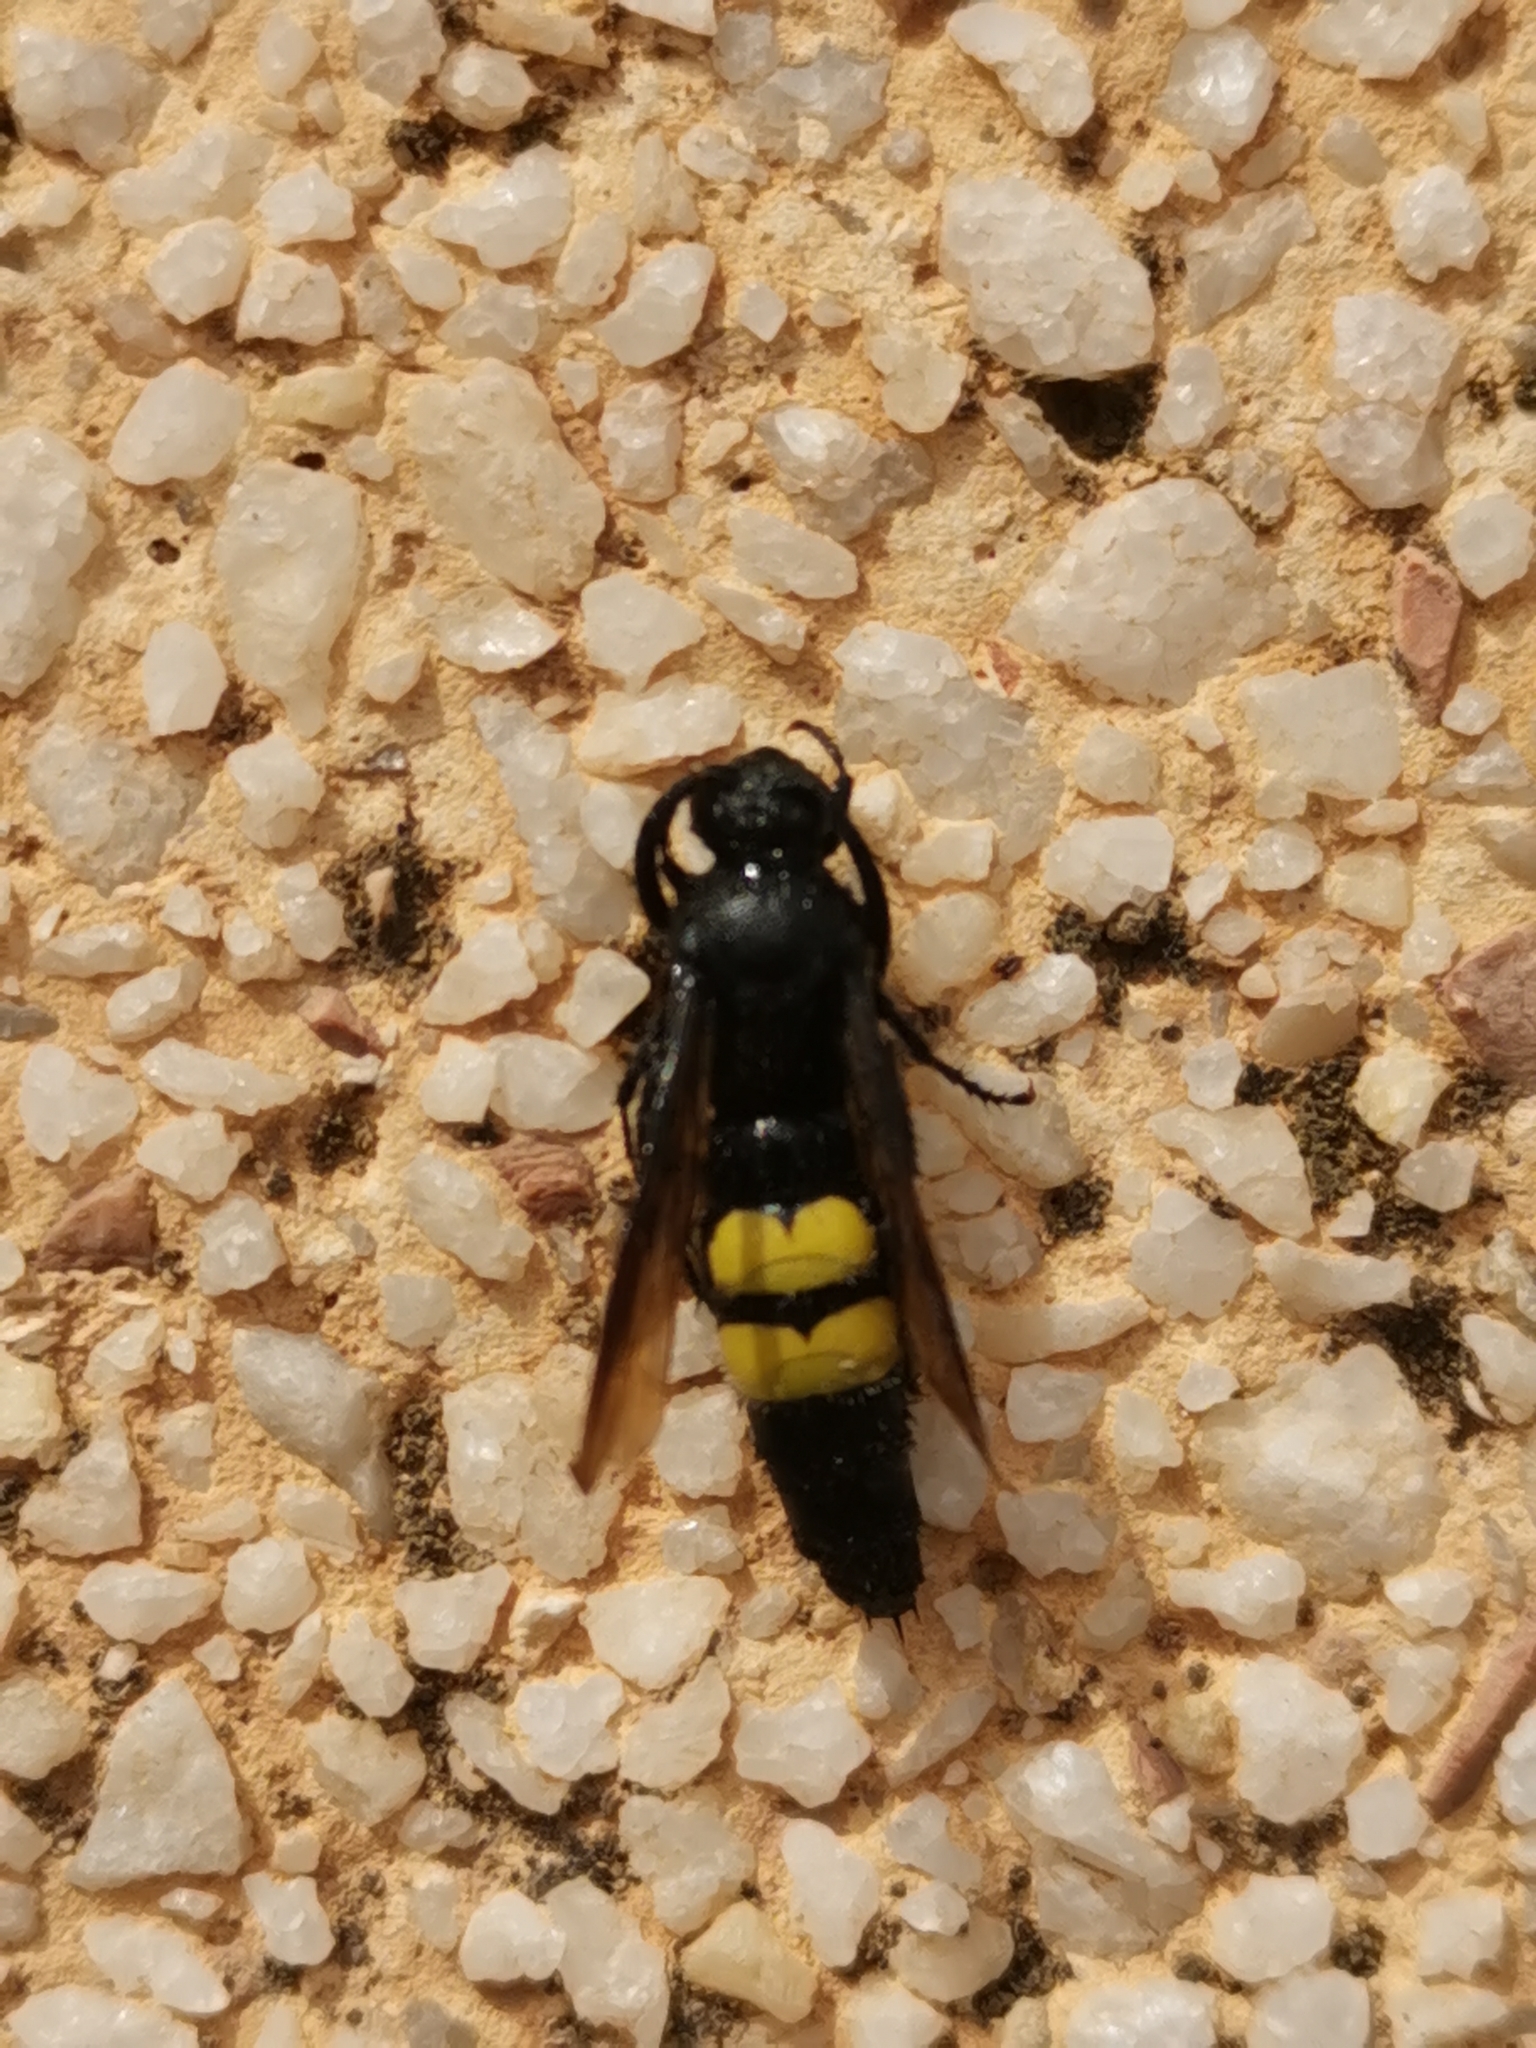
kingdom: Animalia
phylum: Arthropoda
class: Insecta
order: Hymenoptera
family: Scoliidae
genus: Scolia
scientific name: Scolia hirta
